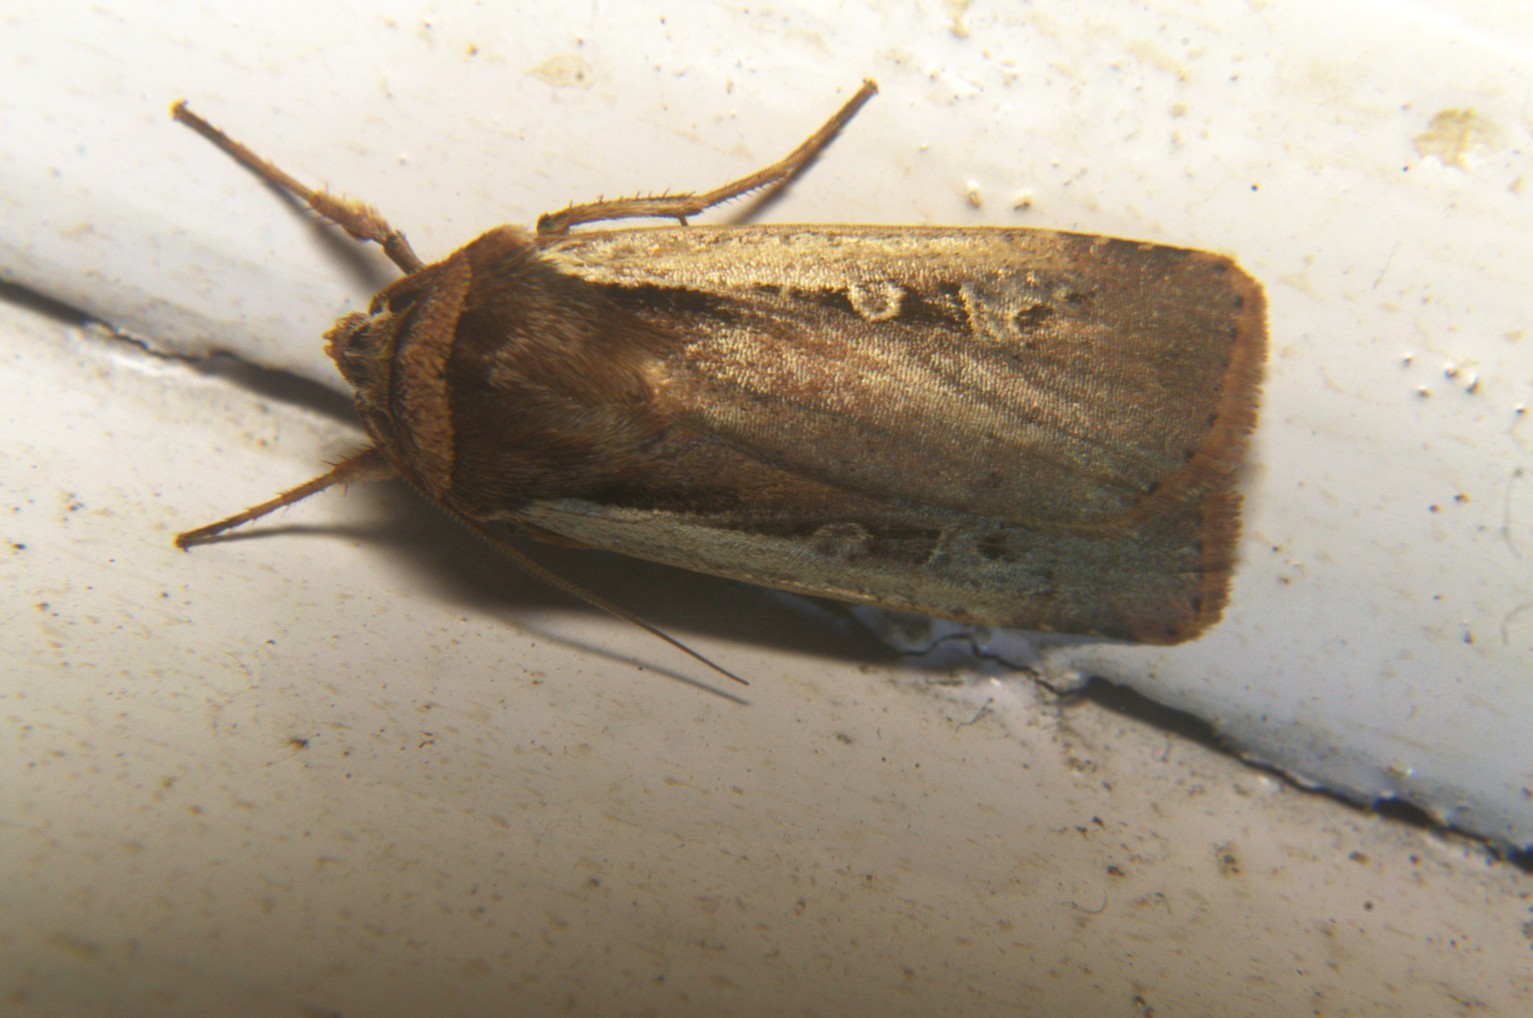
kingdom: Animalia
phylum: Arthropoda
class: Insecta
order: Lepidoptera
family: Noctuidae
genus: Dichagyris
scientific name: Dichagyris triangularis
